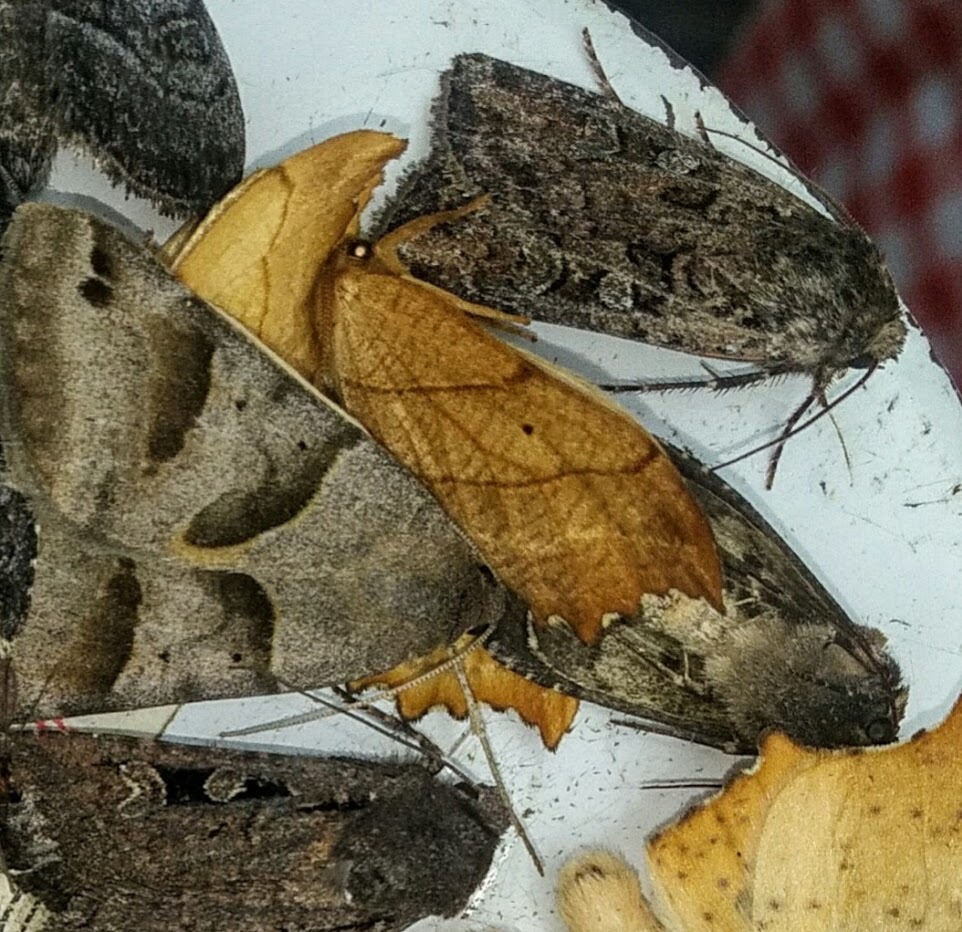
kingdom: Animalia
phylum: Arthropoda
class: Insecta
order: Lepidoptera
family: Drepanidae
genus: Falcaria
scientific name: Falcaria bilineata
